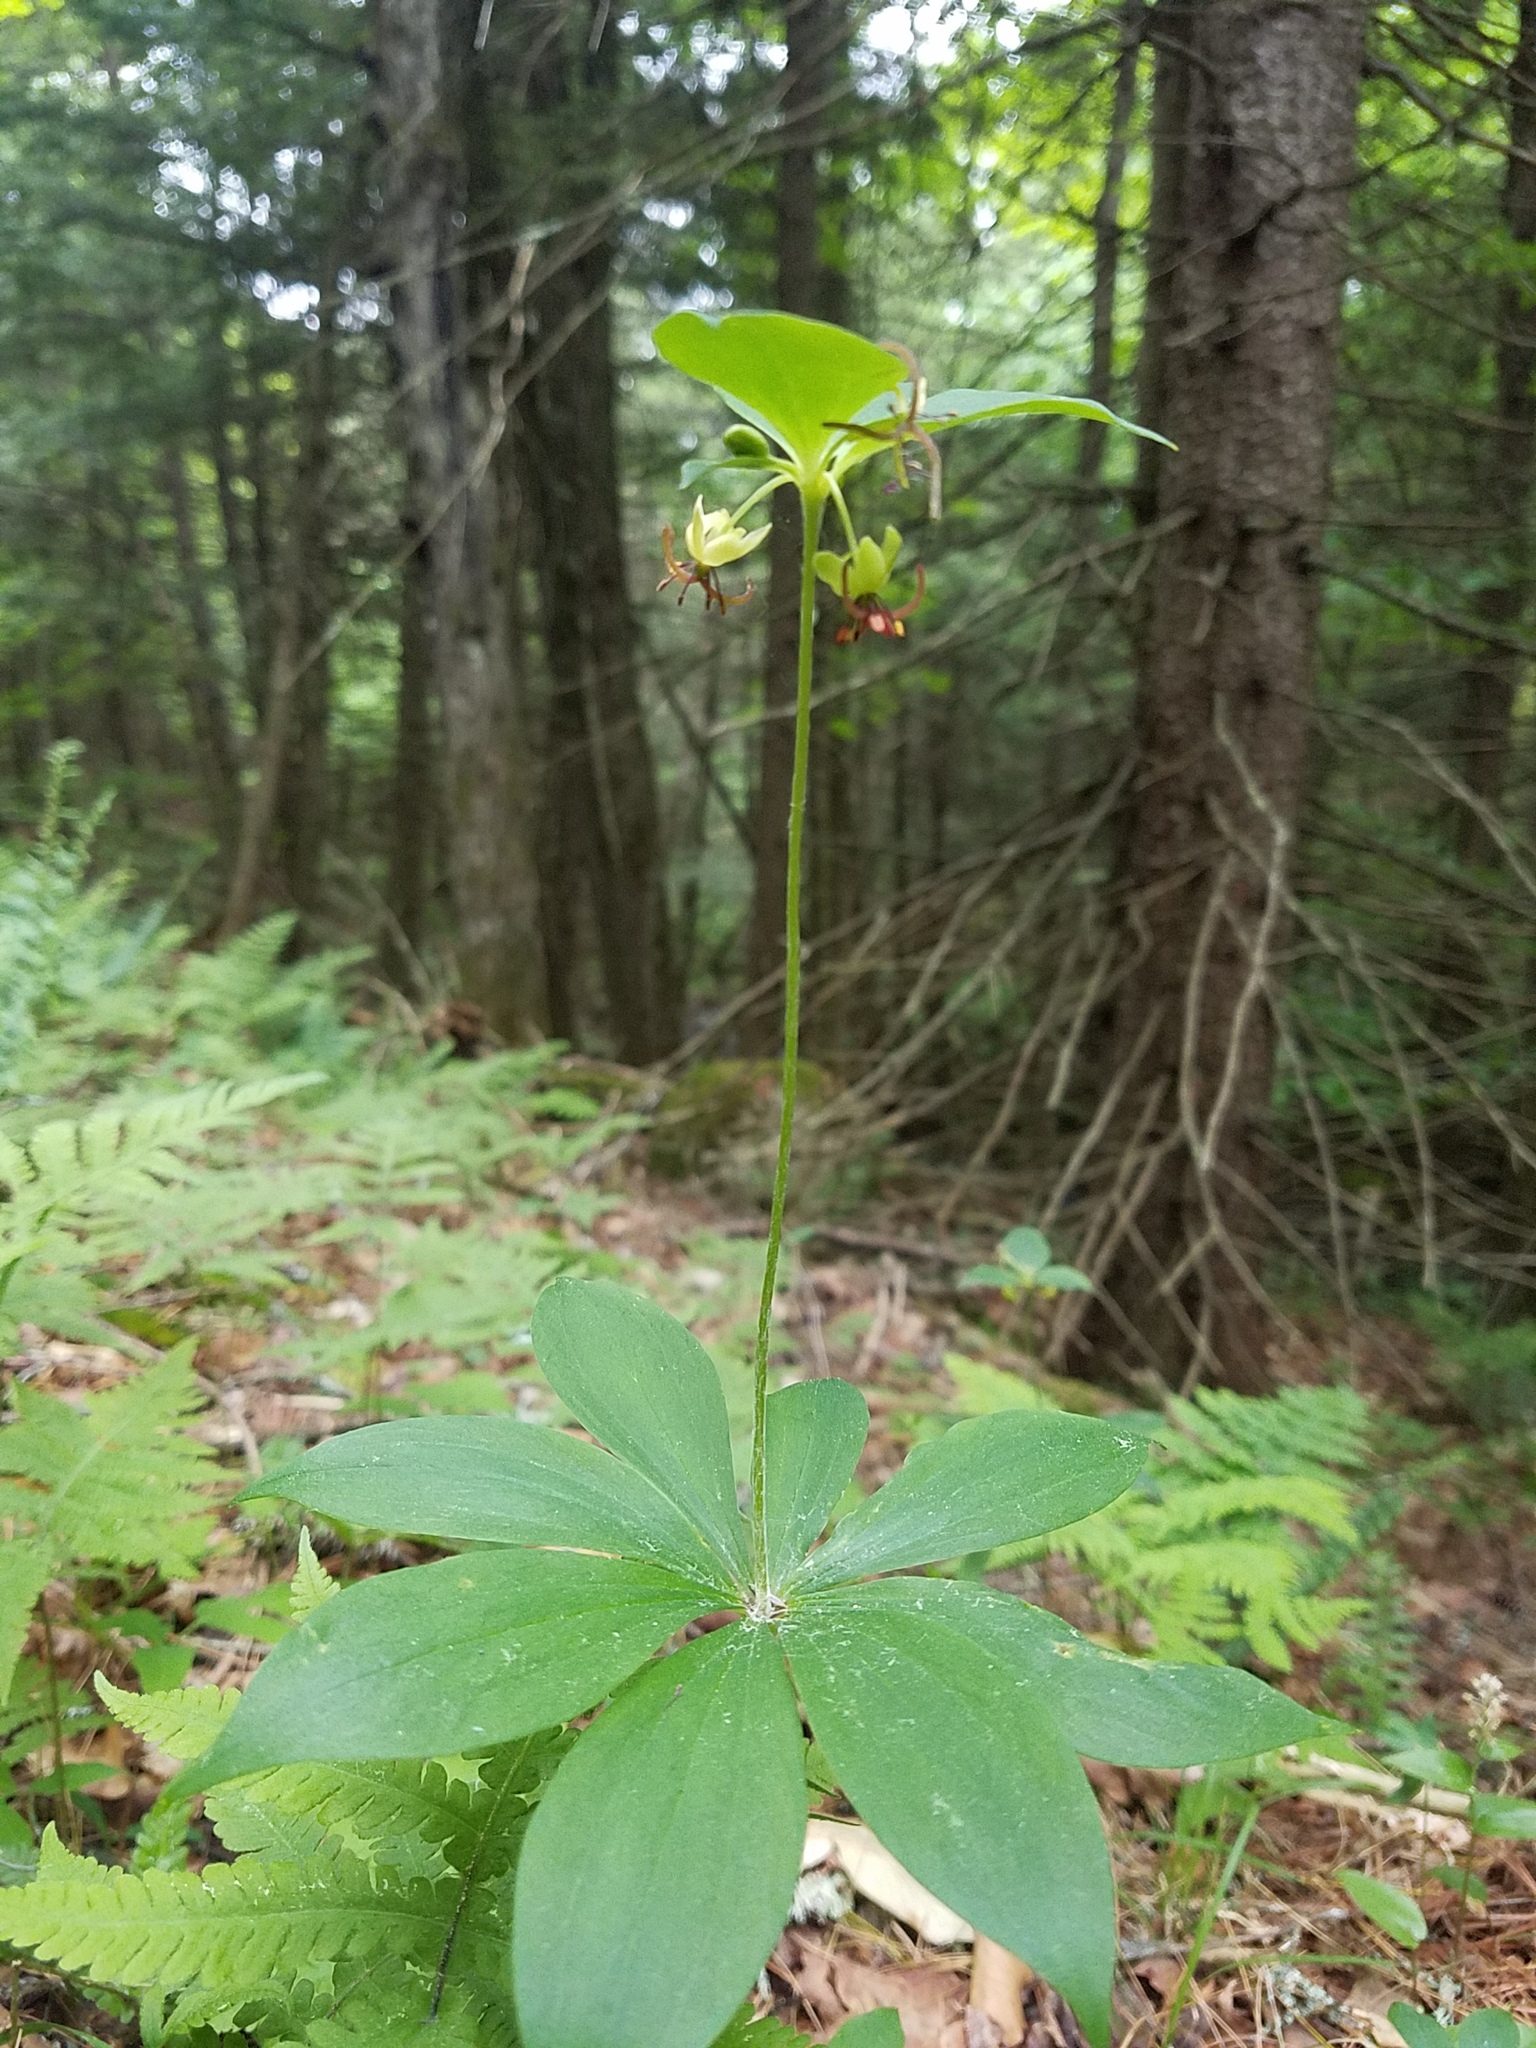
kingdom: Plantae
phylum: Tracheophyta
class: Liliopsida
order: Liliales
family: Liliaceae
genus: Medeola
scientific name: Medeola virginiana
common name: Indian cucumber-root
